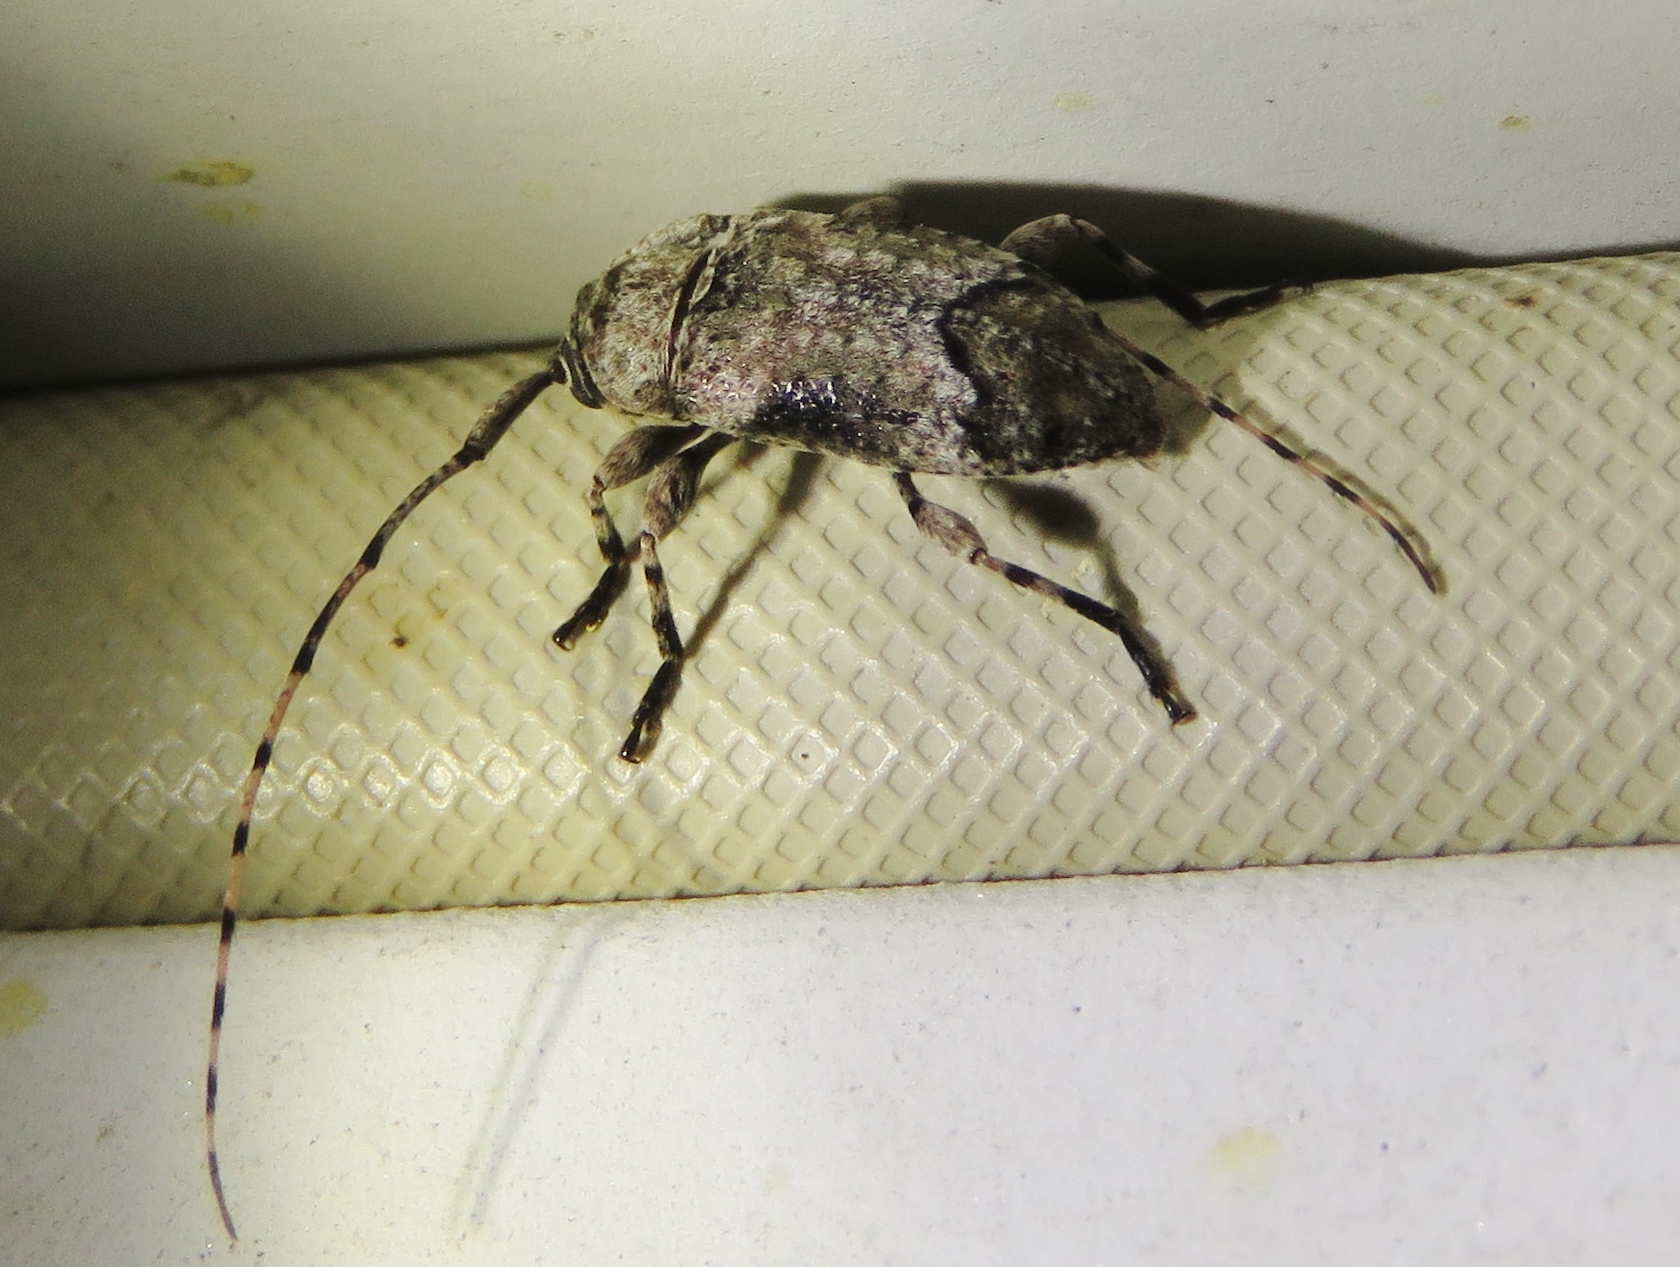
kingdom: Animalia
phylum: Arthropoda
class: Insecta
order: Coleoptera
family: Cerambycidae
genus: Sternidius
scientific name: Sternidius mimeticus
